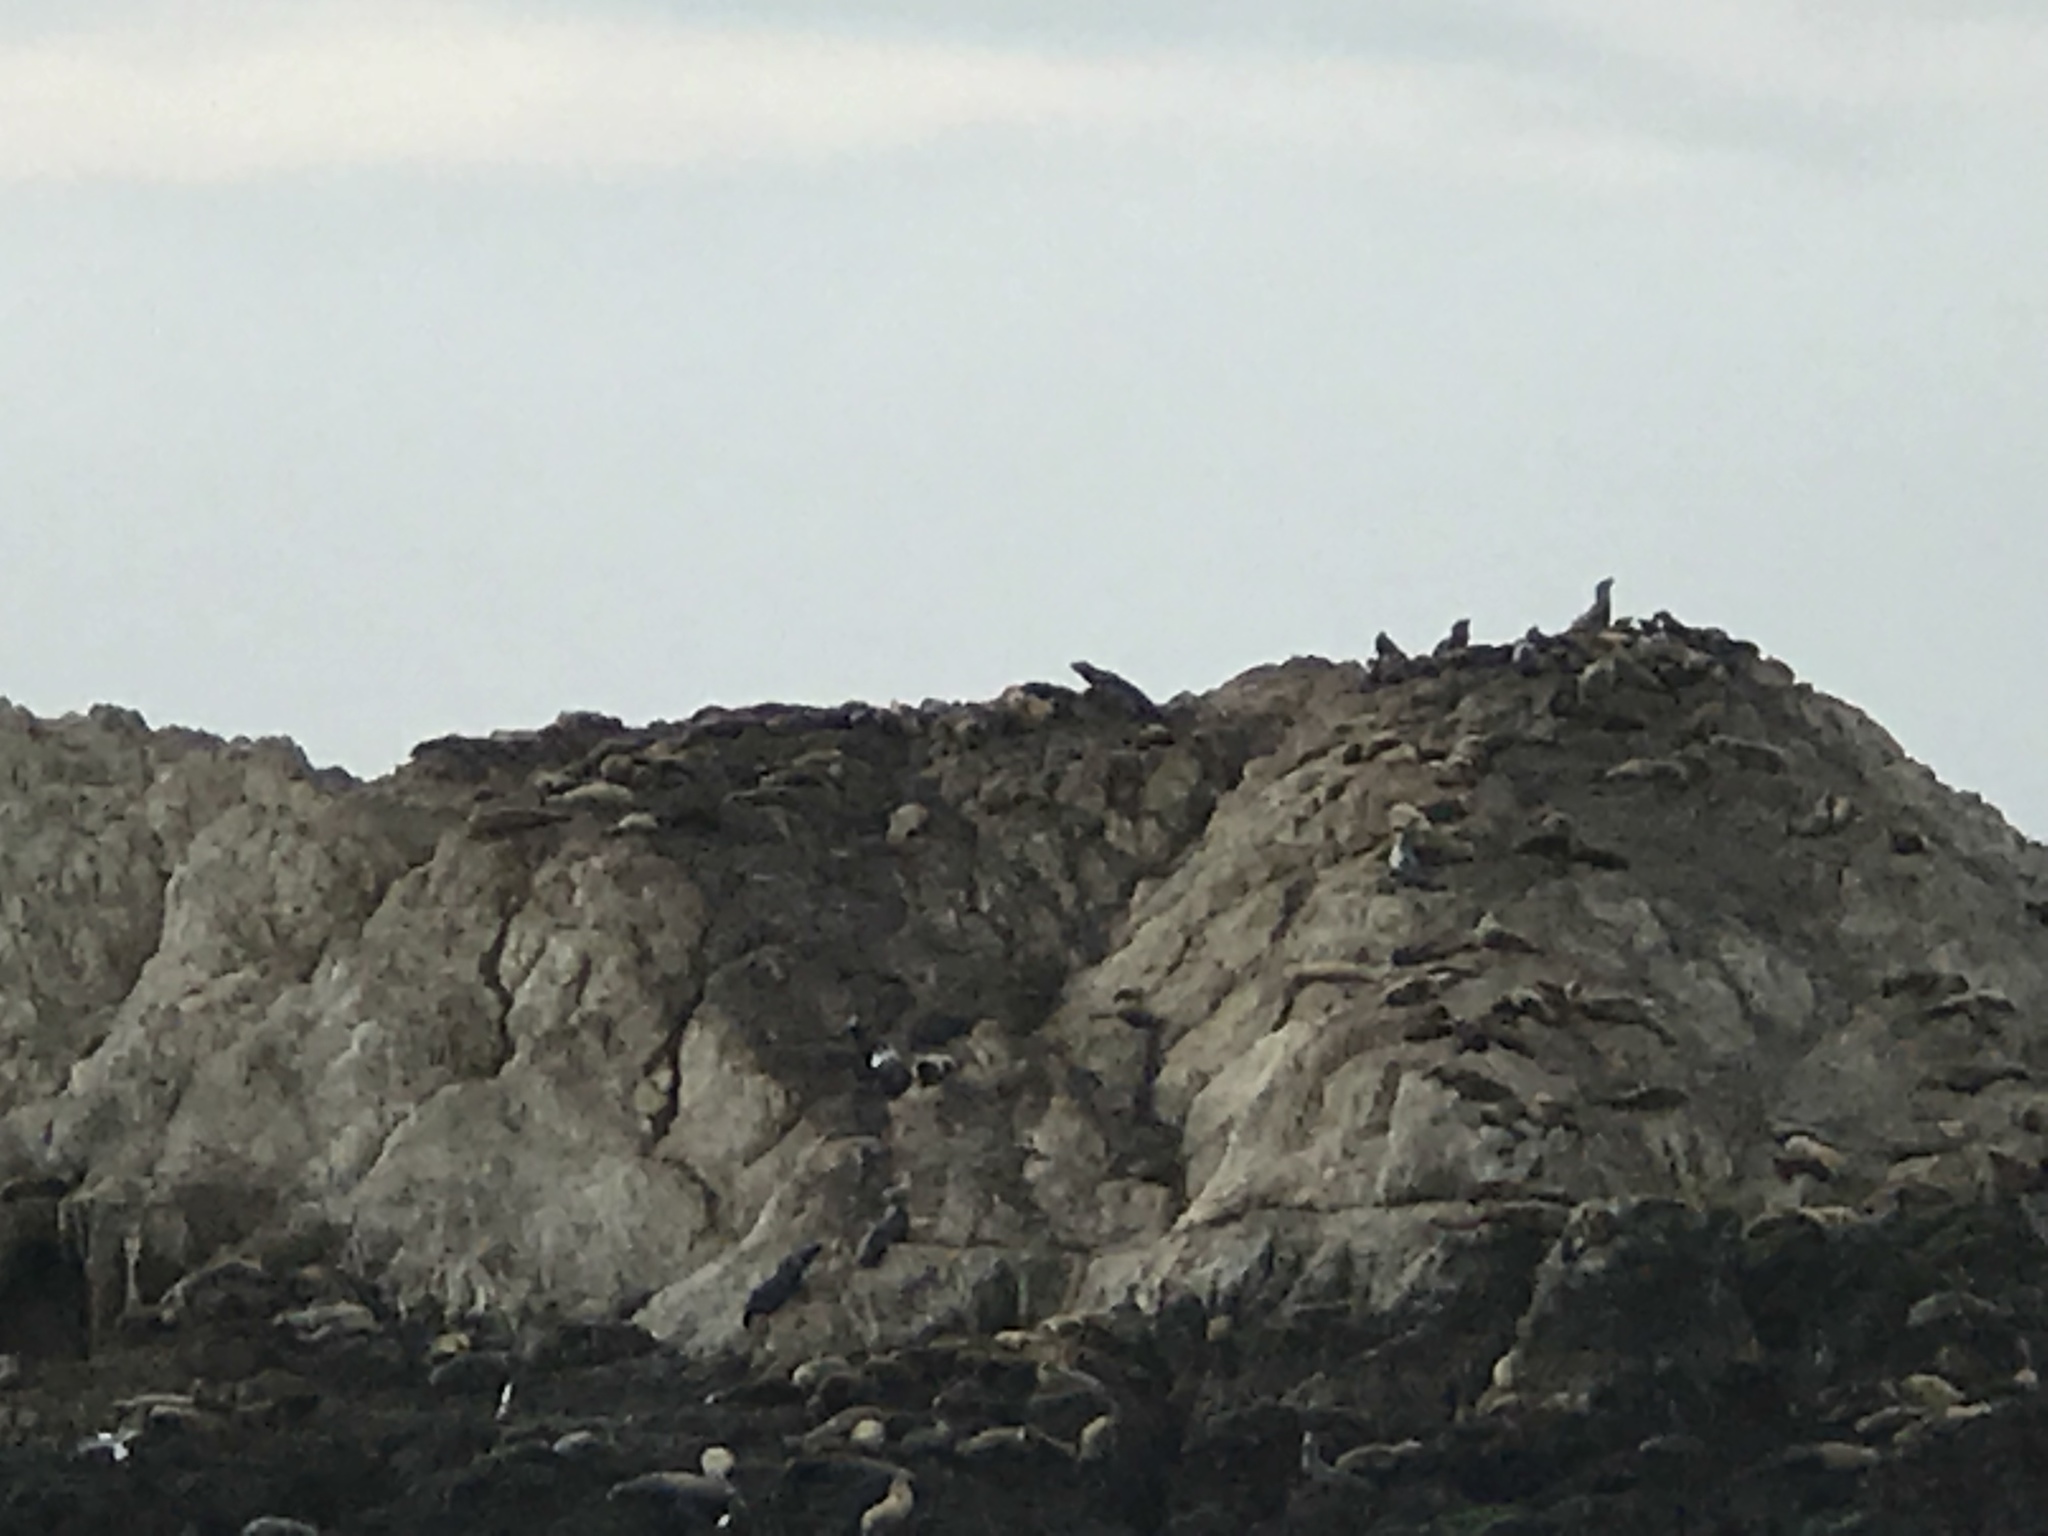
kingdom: Animalia
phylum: Chordata
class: Mammalia
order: Carnivora
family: Otariidae
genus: Zalophus
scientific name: Zalophus californianus
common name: California sea lion
